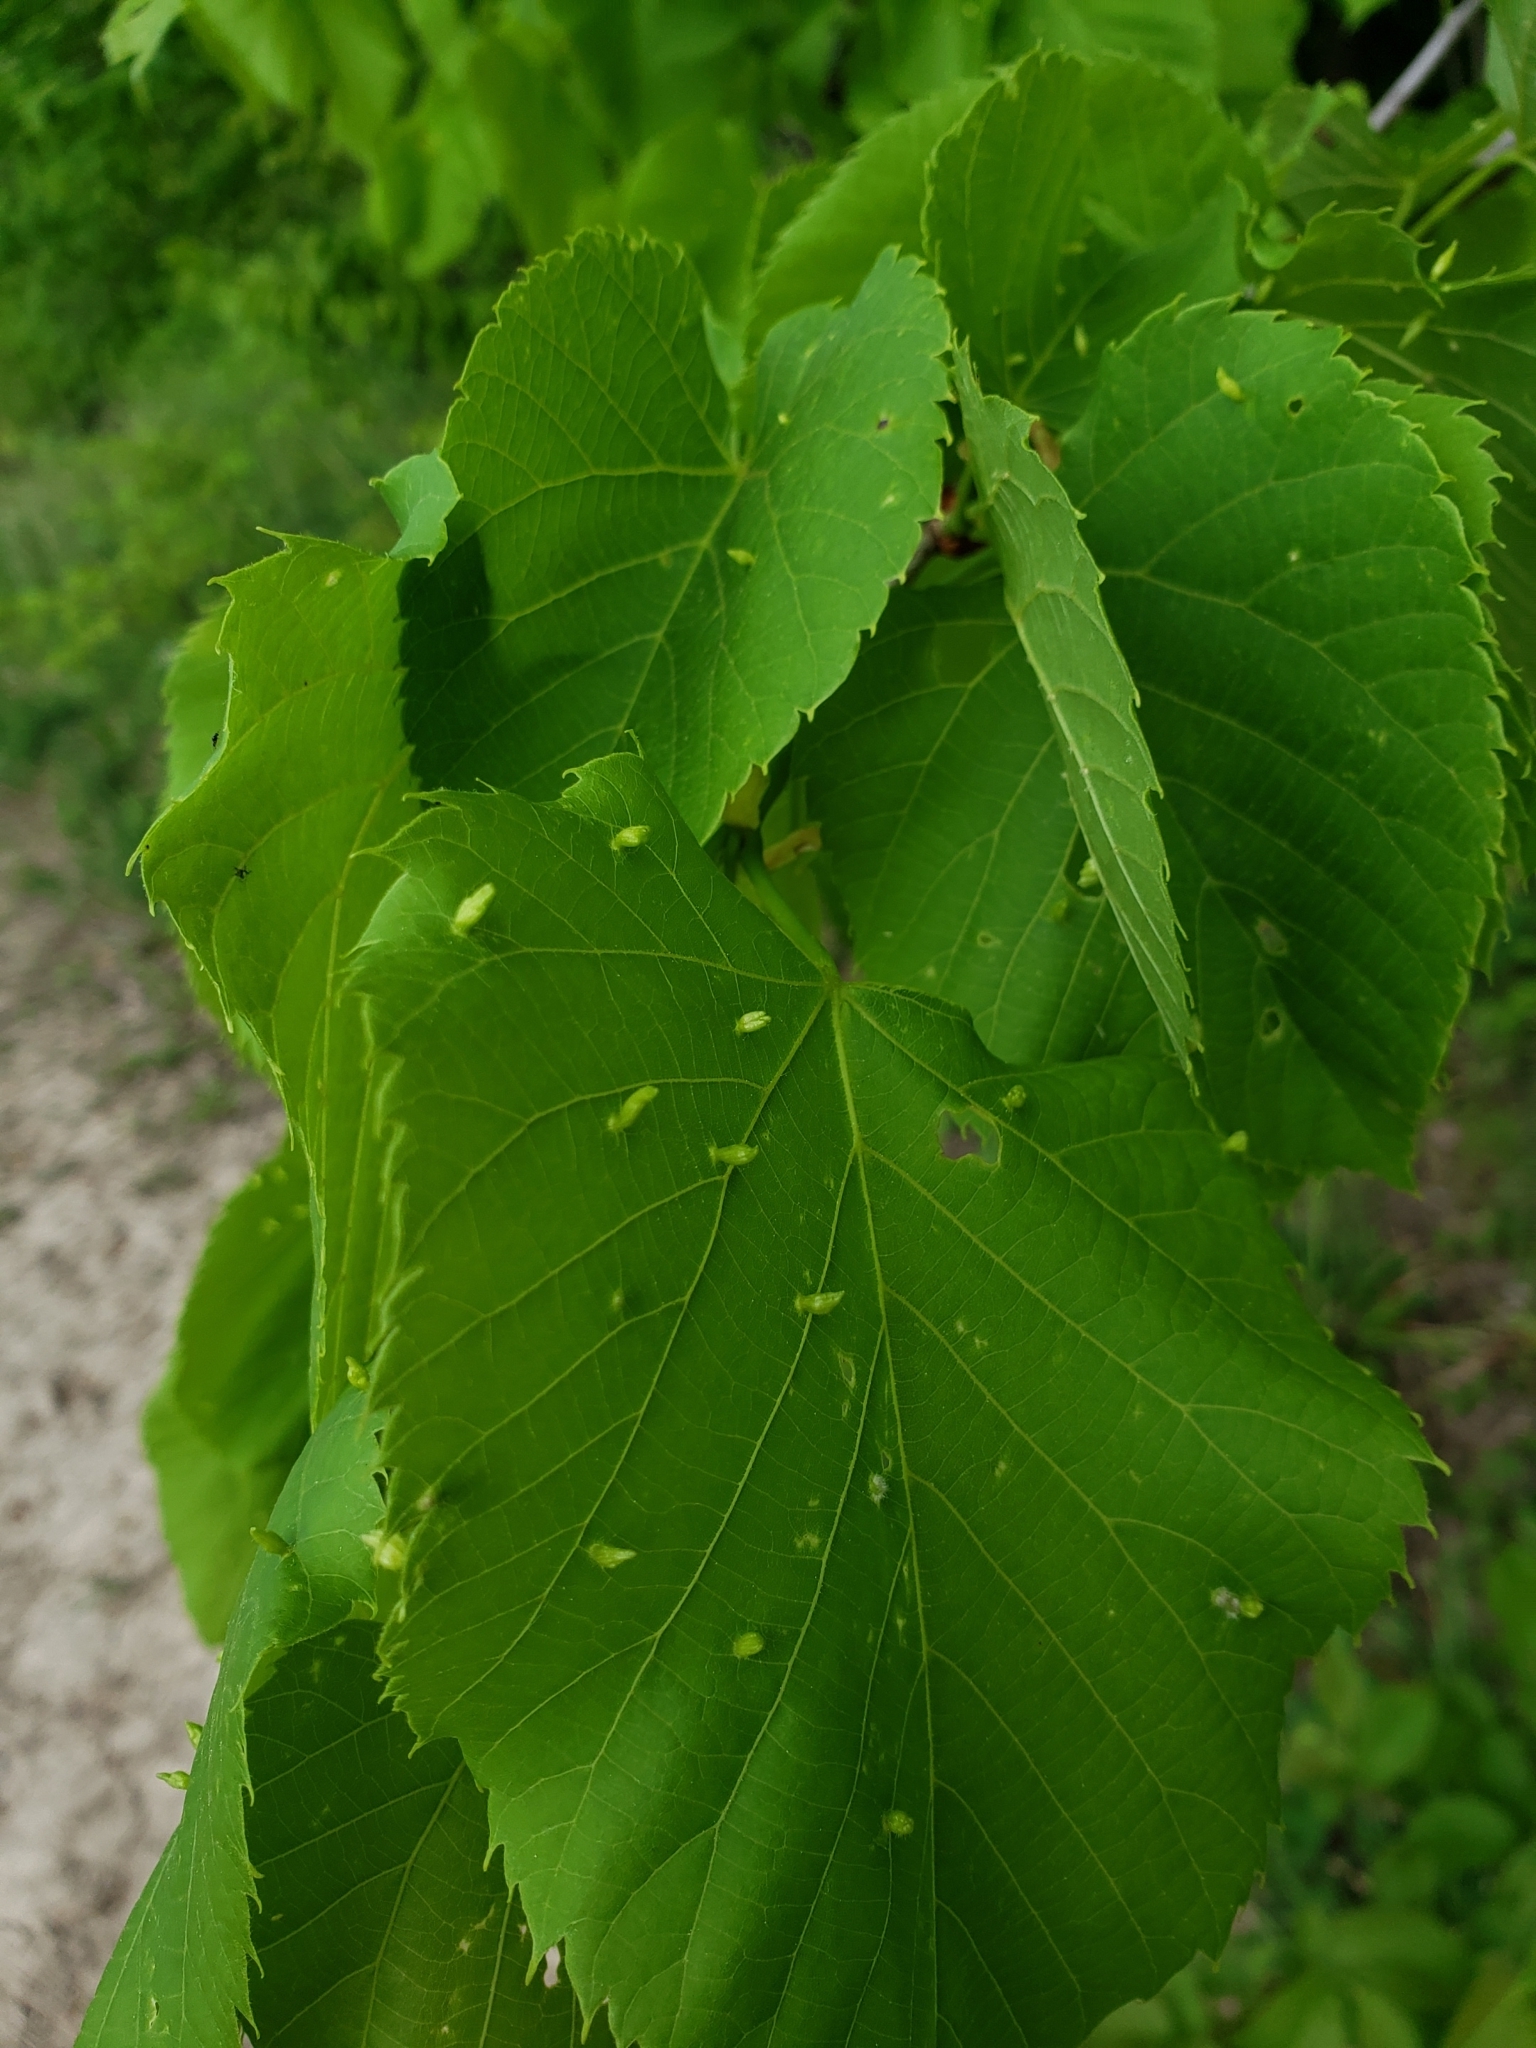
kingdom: Animalia
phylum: Arthropoda
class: Arachnida
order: Trombidiformes
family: Eriophyidae
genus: Eriophyes
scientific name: Eriophyes tiliae
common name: Red nail gall mite
